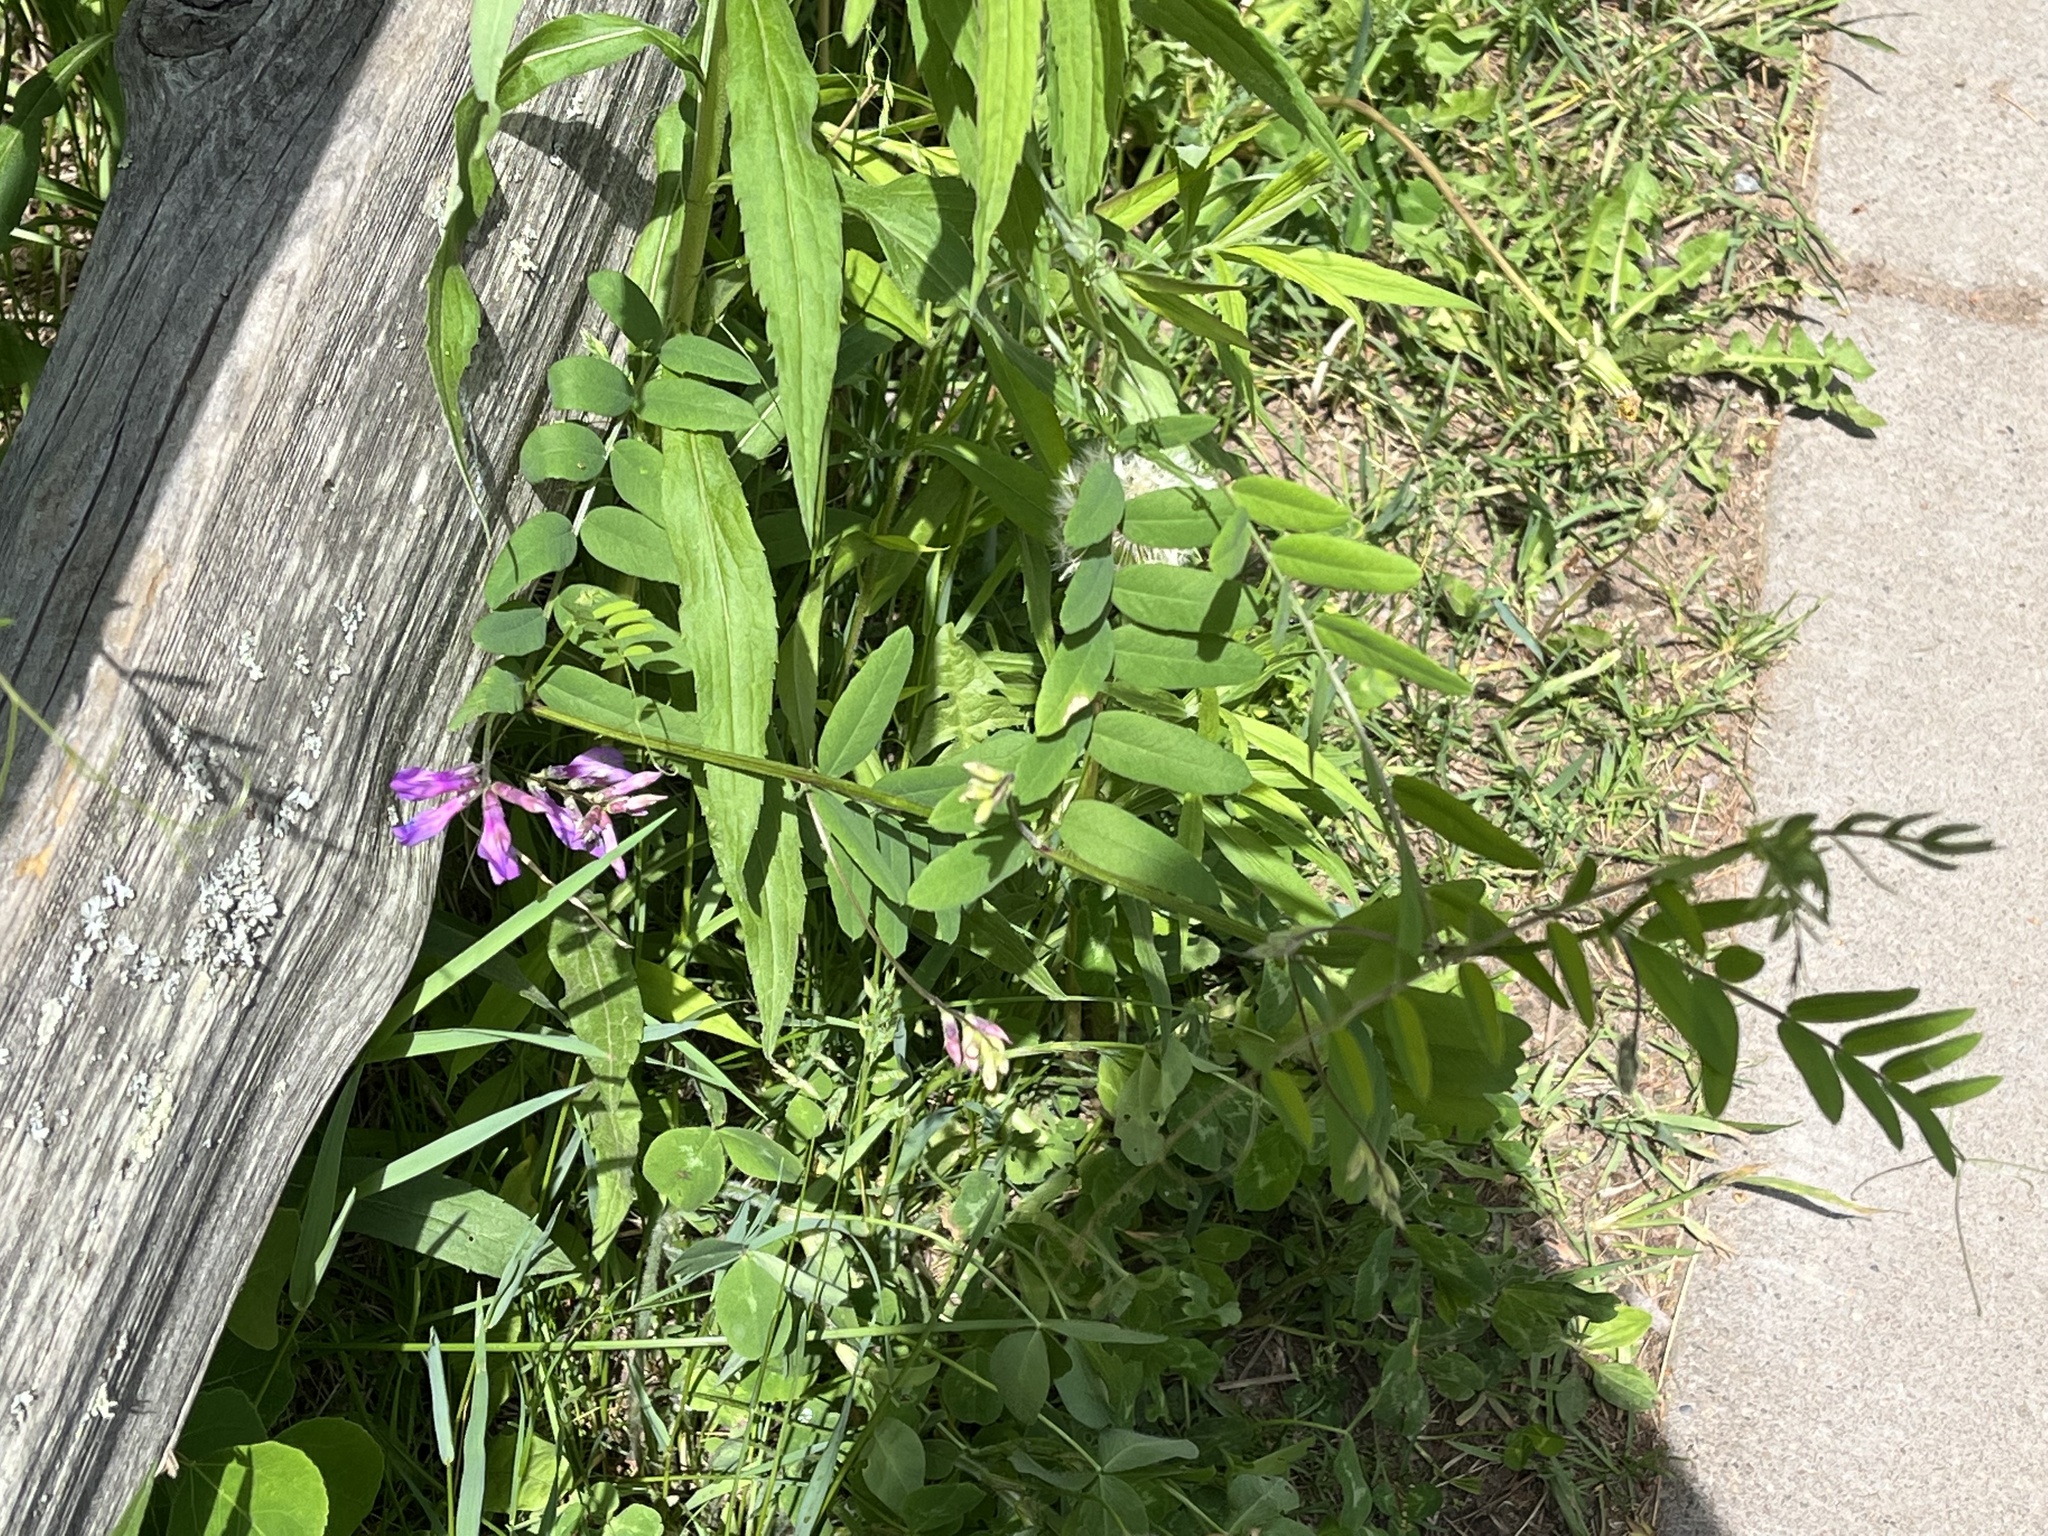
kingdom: Plantae
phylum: Tracheophyta
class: Magnoliopsida
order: Fabales
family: Fabaceae
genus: Vicia
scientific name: Vicia americana
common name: American vetch
